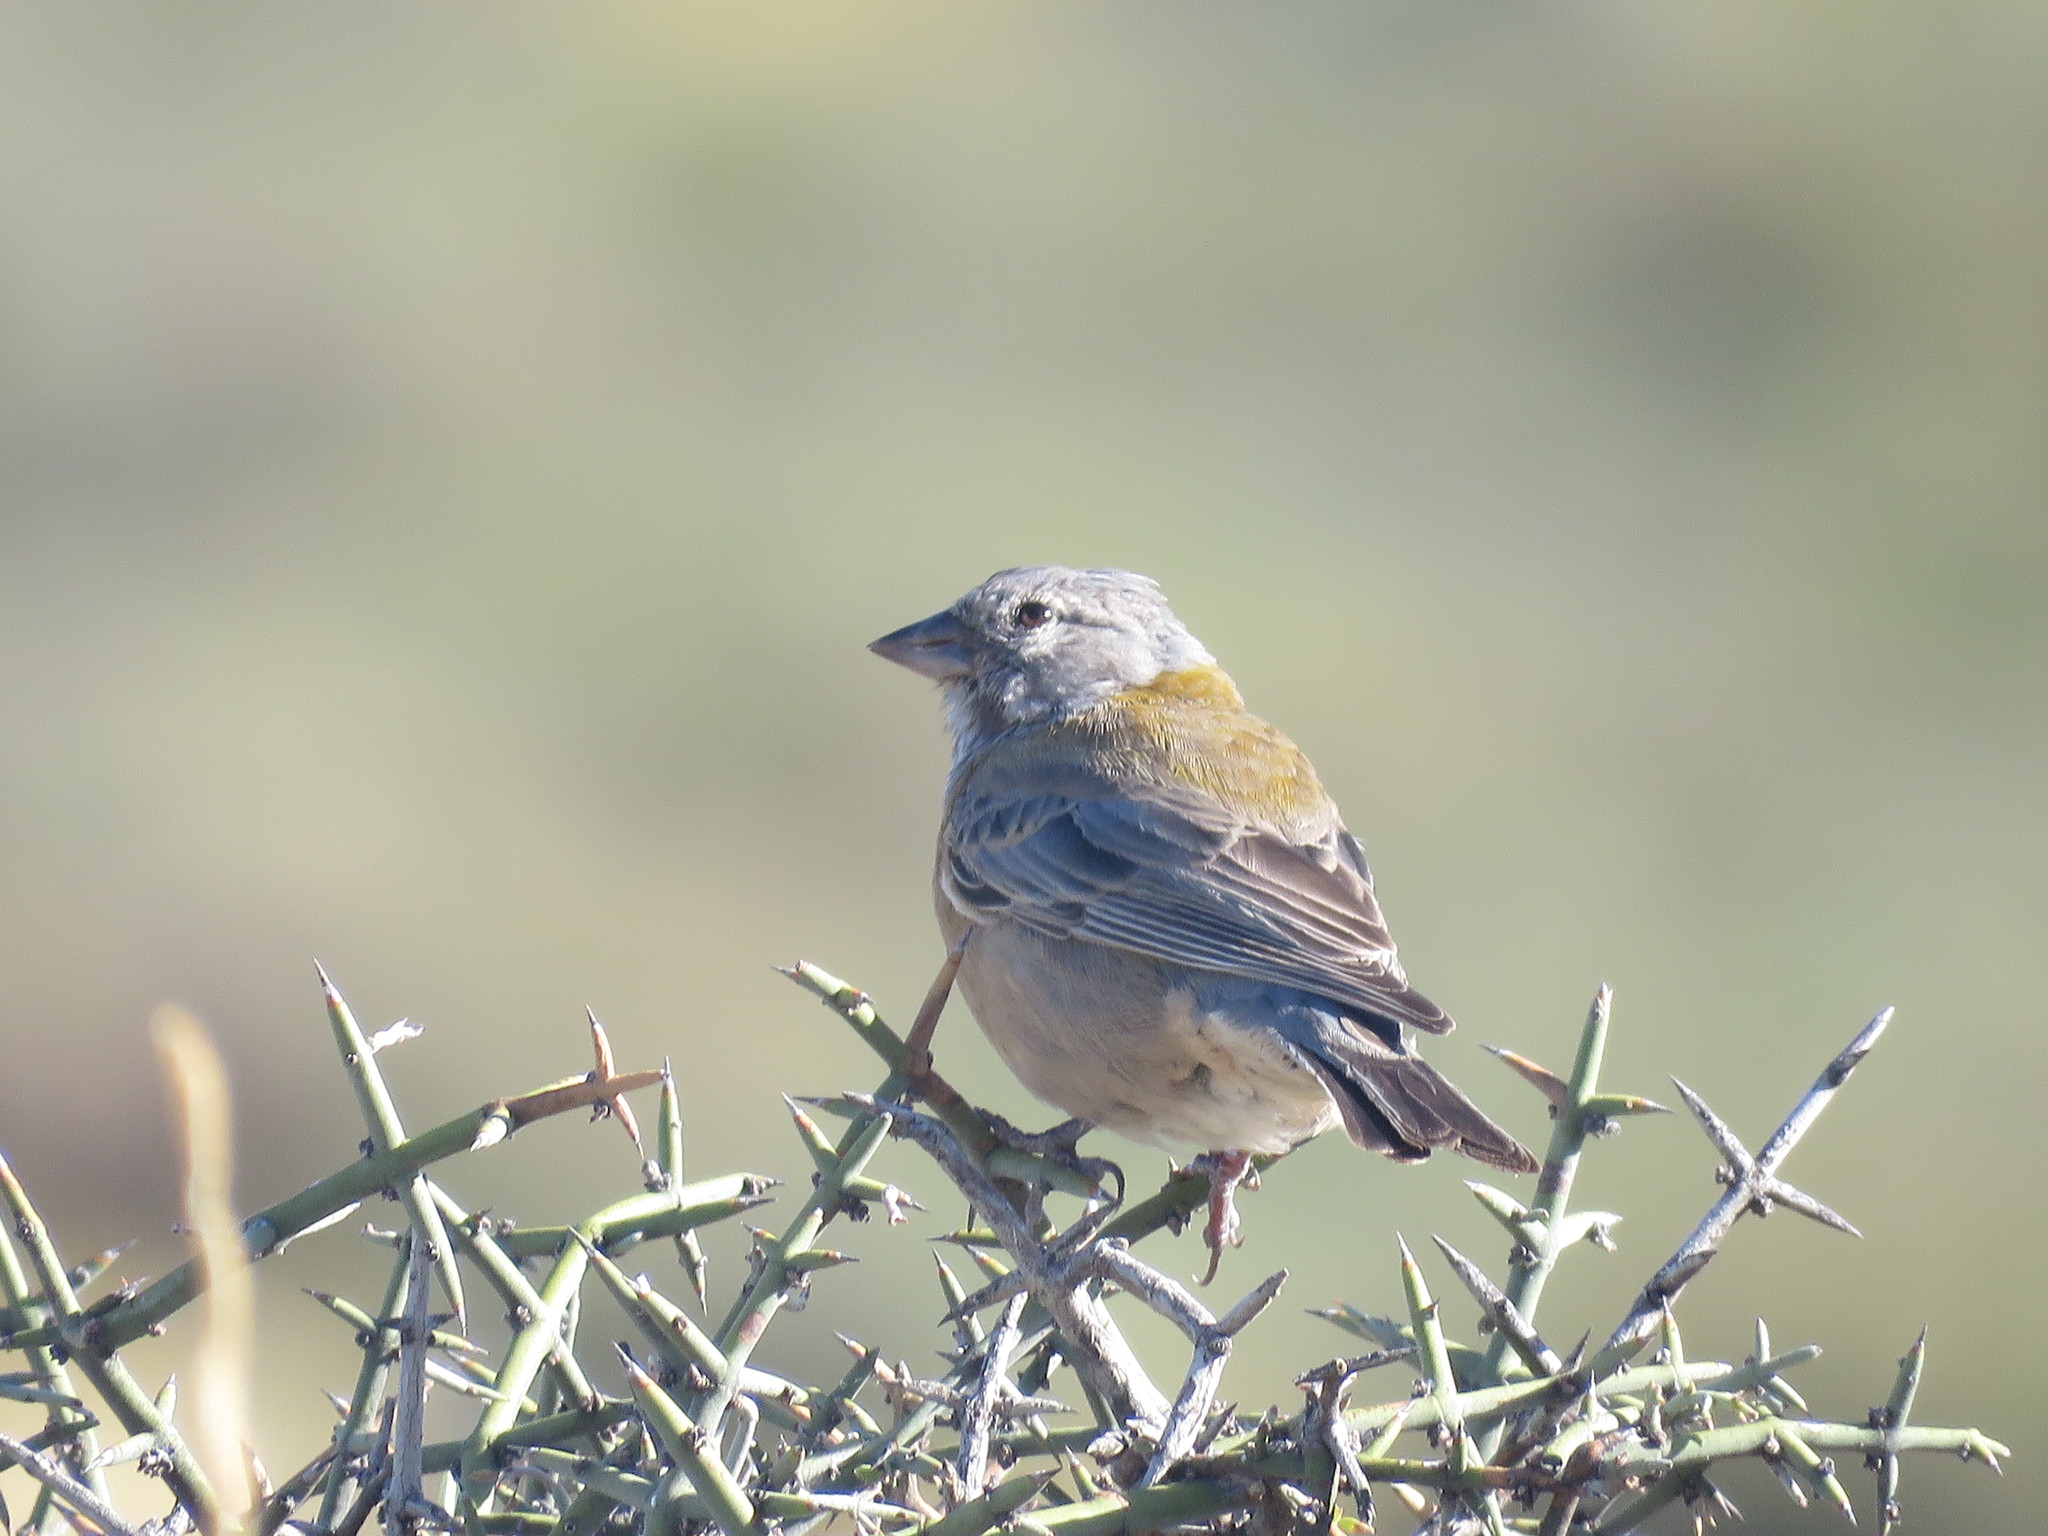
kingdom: Animalia
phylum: Chordata
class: Aves
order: Passeriformes
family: Thraupidae
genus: Phrygilus
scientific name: Phrygilus gayi
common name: Grey-hooded sierra finch
